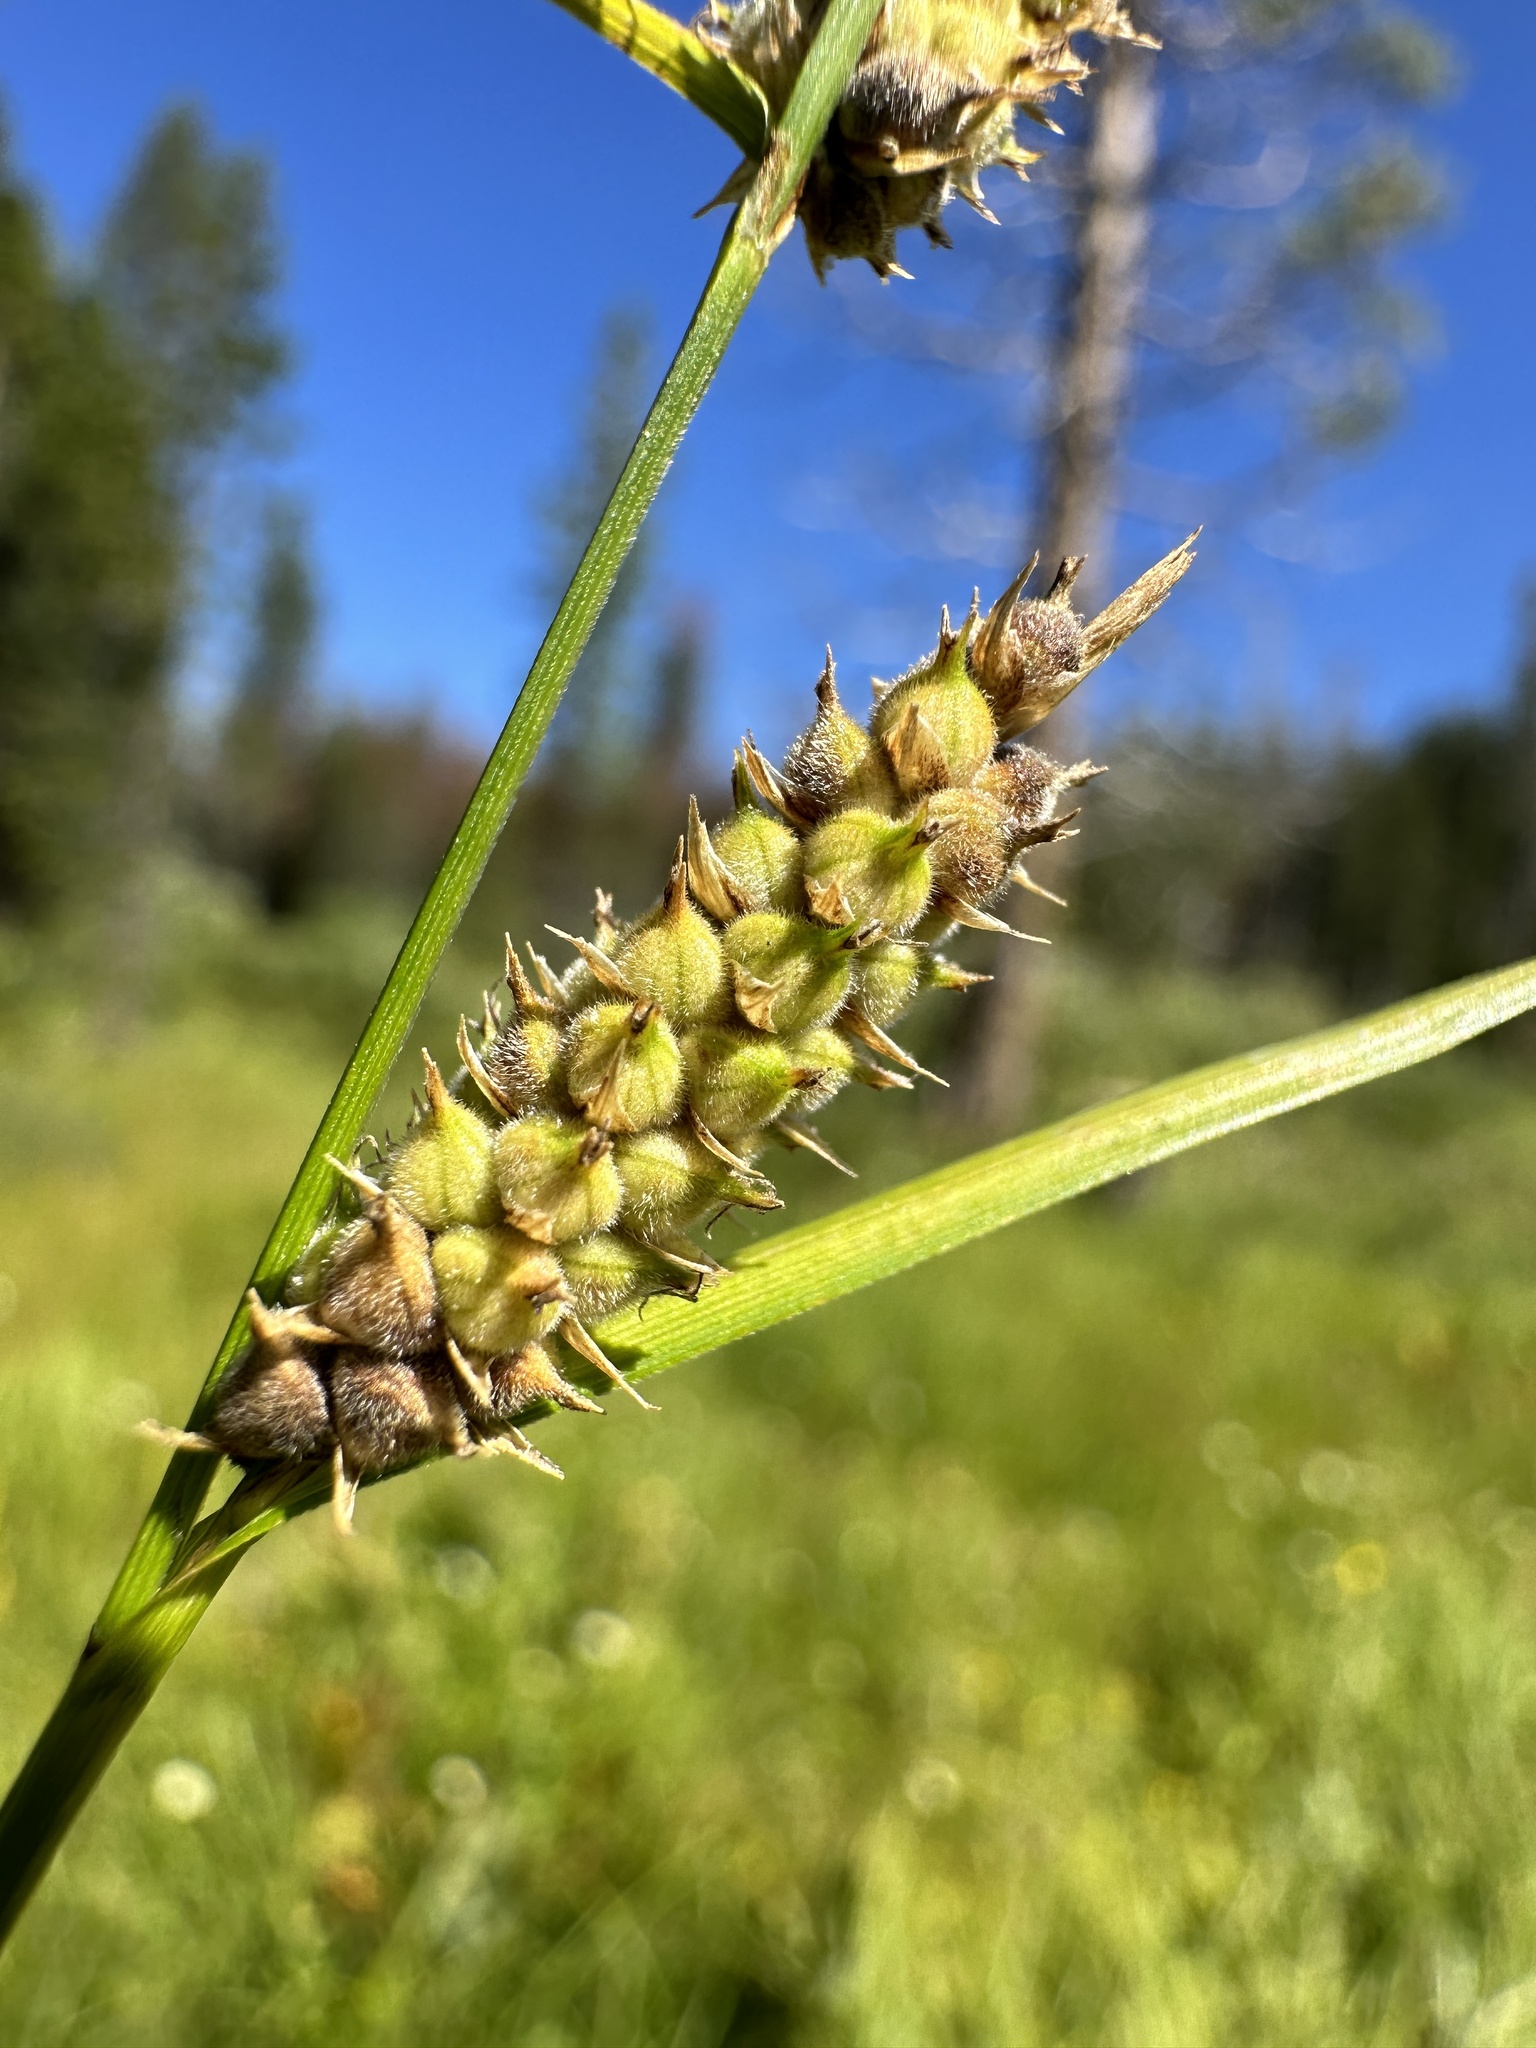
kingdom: Plantae
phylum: Tracheophyta
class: Liliopsida
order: Poales
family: Cyperaceae
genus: Carex
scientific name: Carex pellita
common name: Woolly sedge
